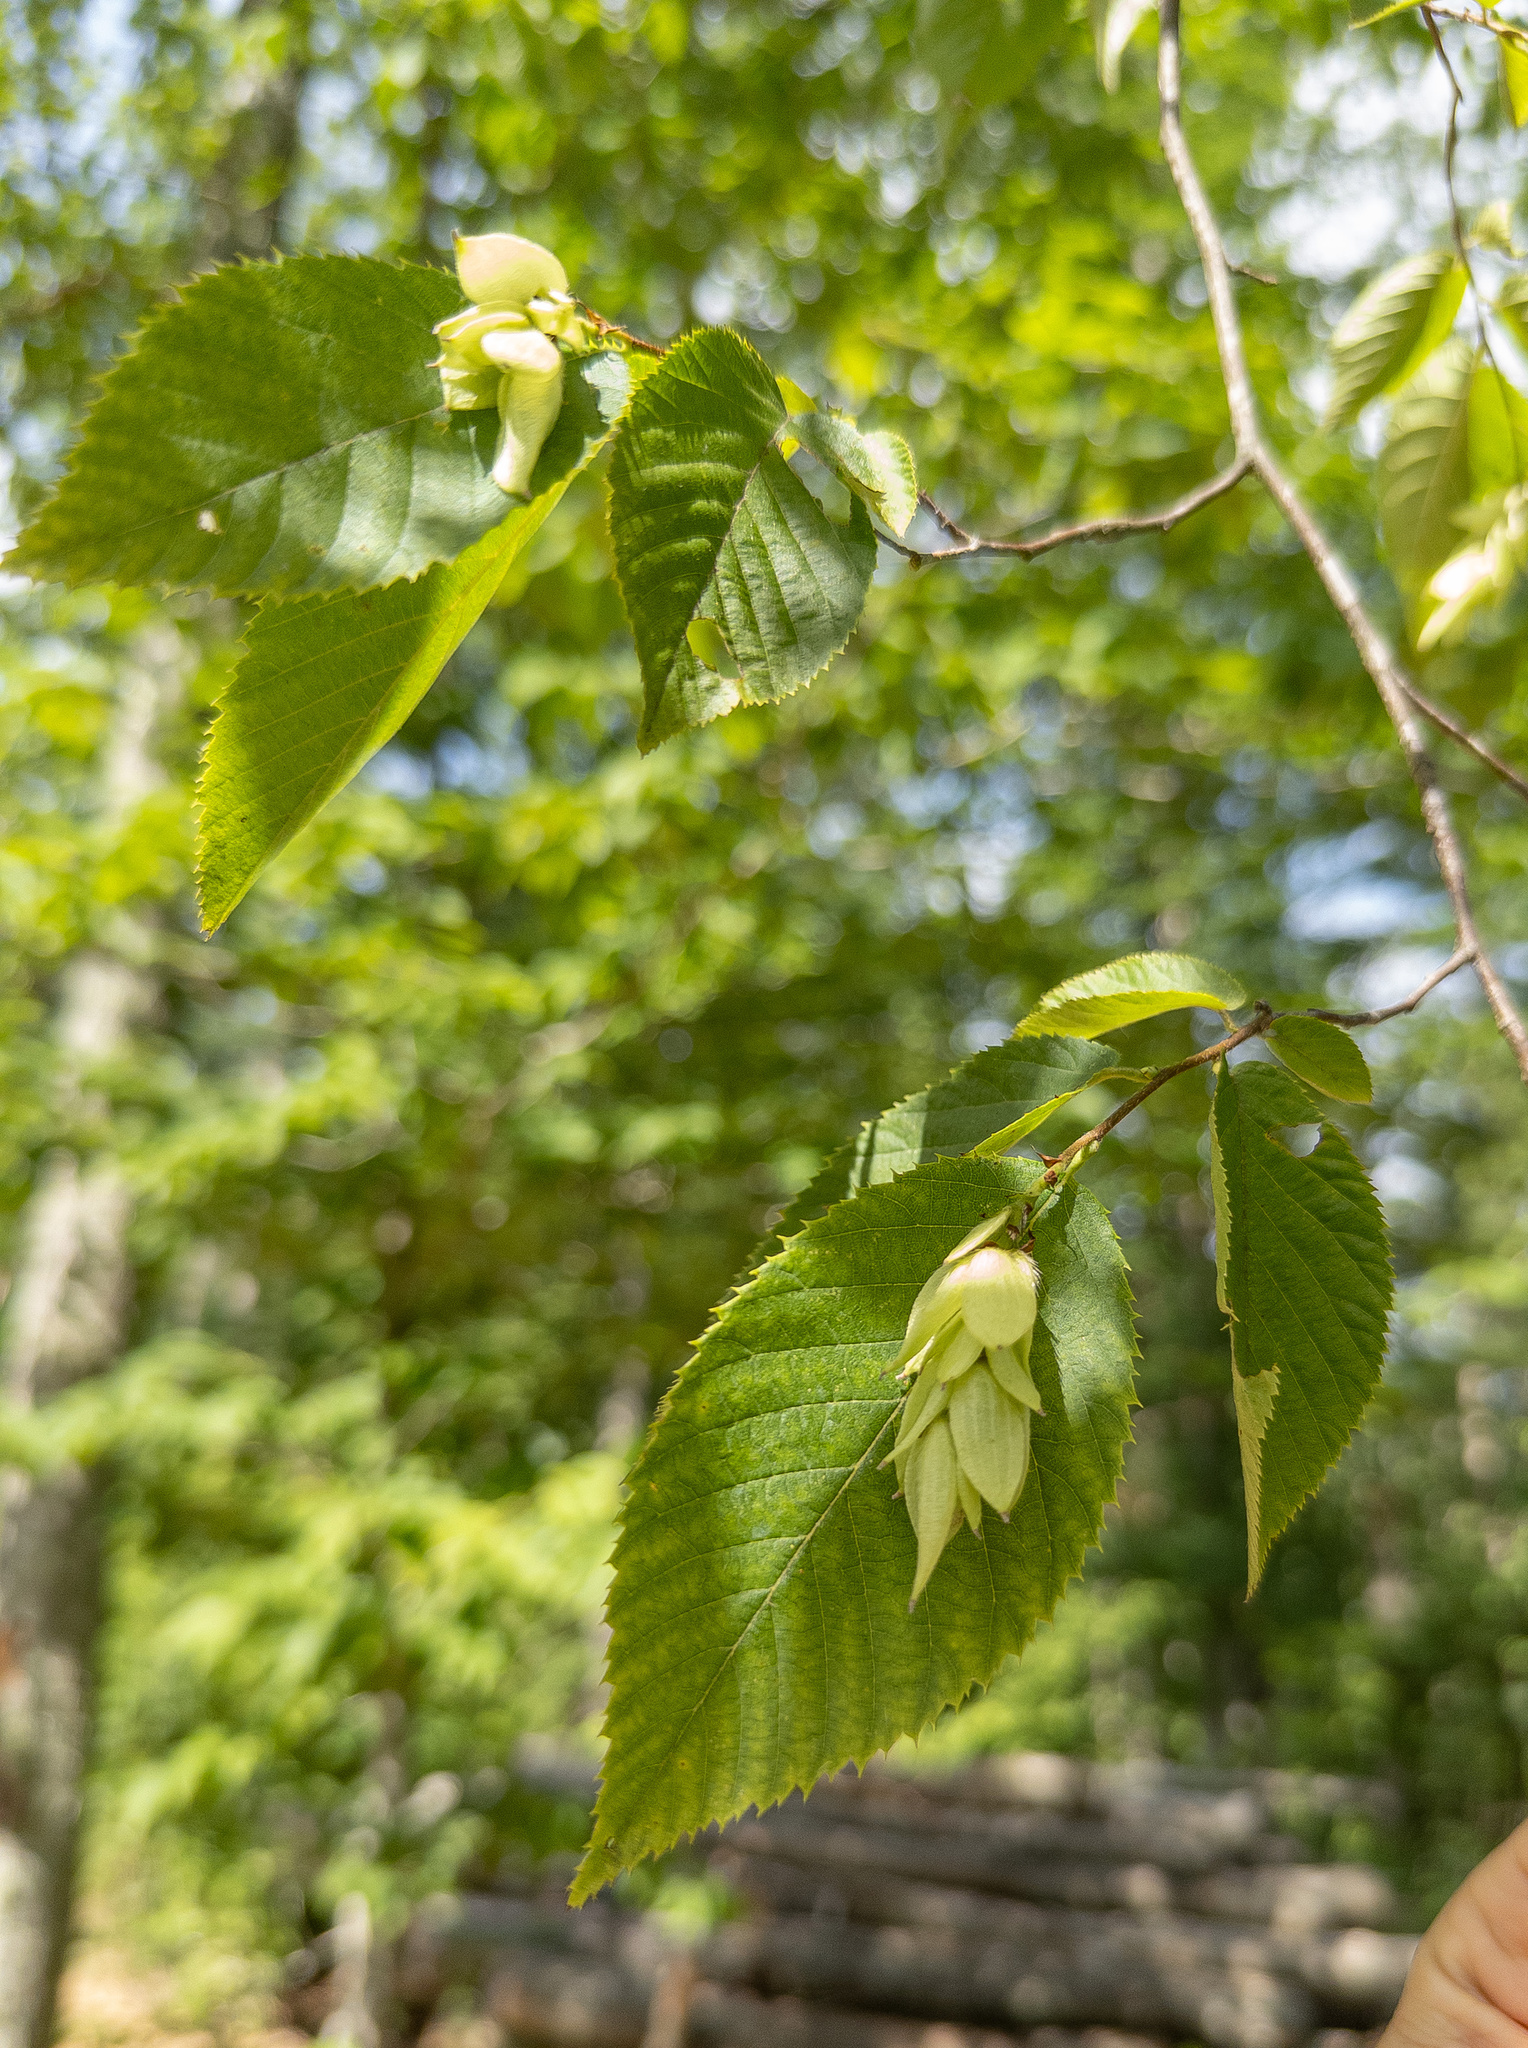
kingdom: Plantae
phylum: Tracheophyta
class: Magnoliopsida
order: Fagales
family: Betulaceae
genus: Ostrya
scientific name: Ostrya virginiana
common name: Ironwood
